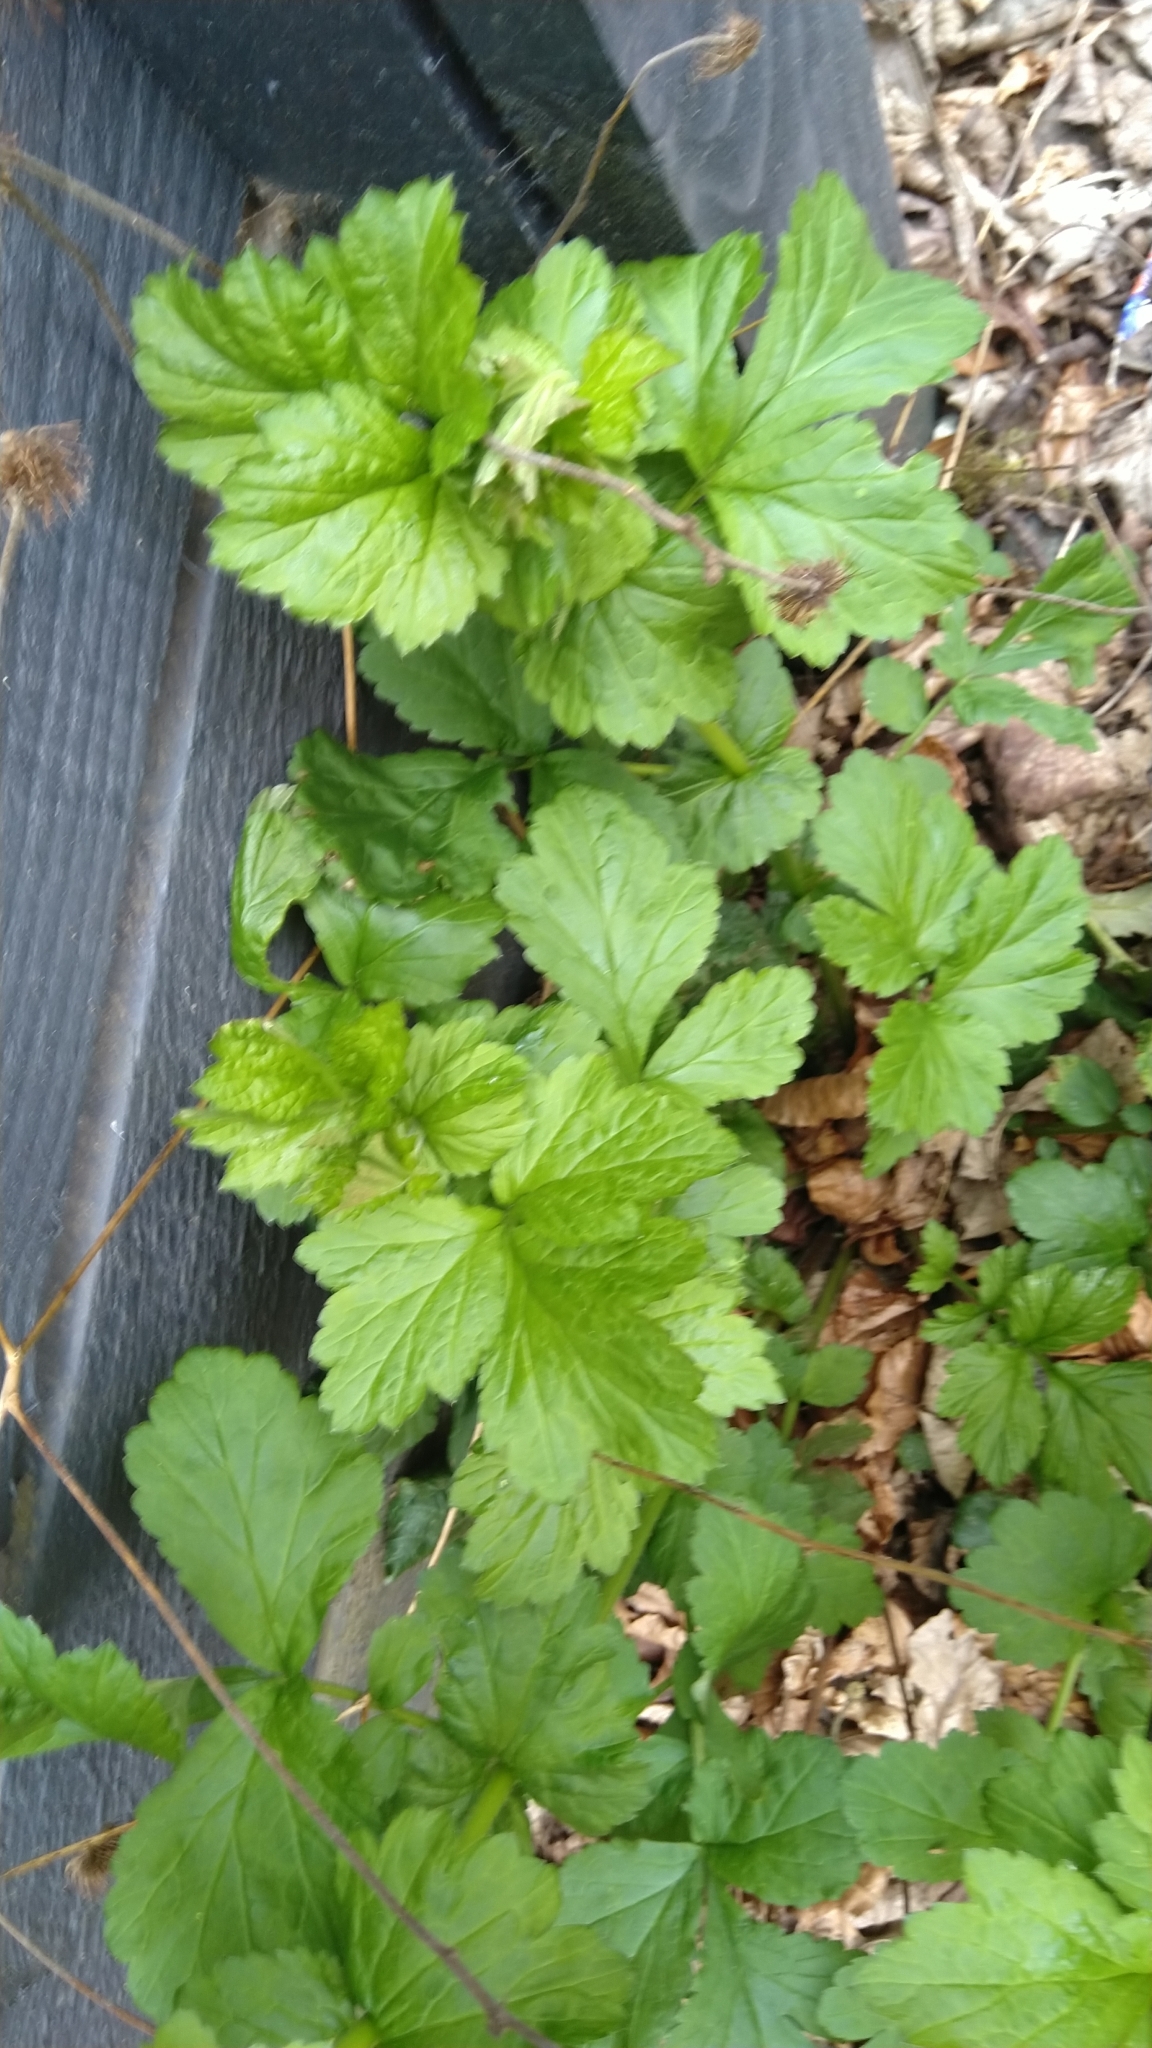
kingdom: Plantae
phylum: Tracheophyta
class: Magnoliopsida
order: Rosales
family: Rosaceae
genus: Geum
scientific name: Geum urbanum
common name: Wood avens
